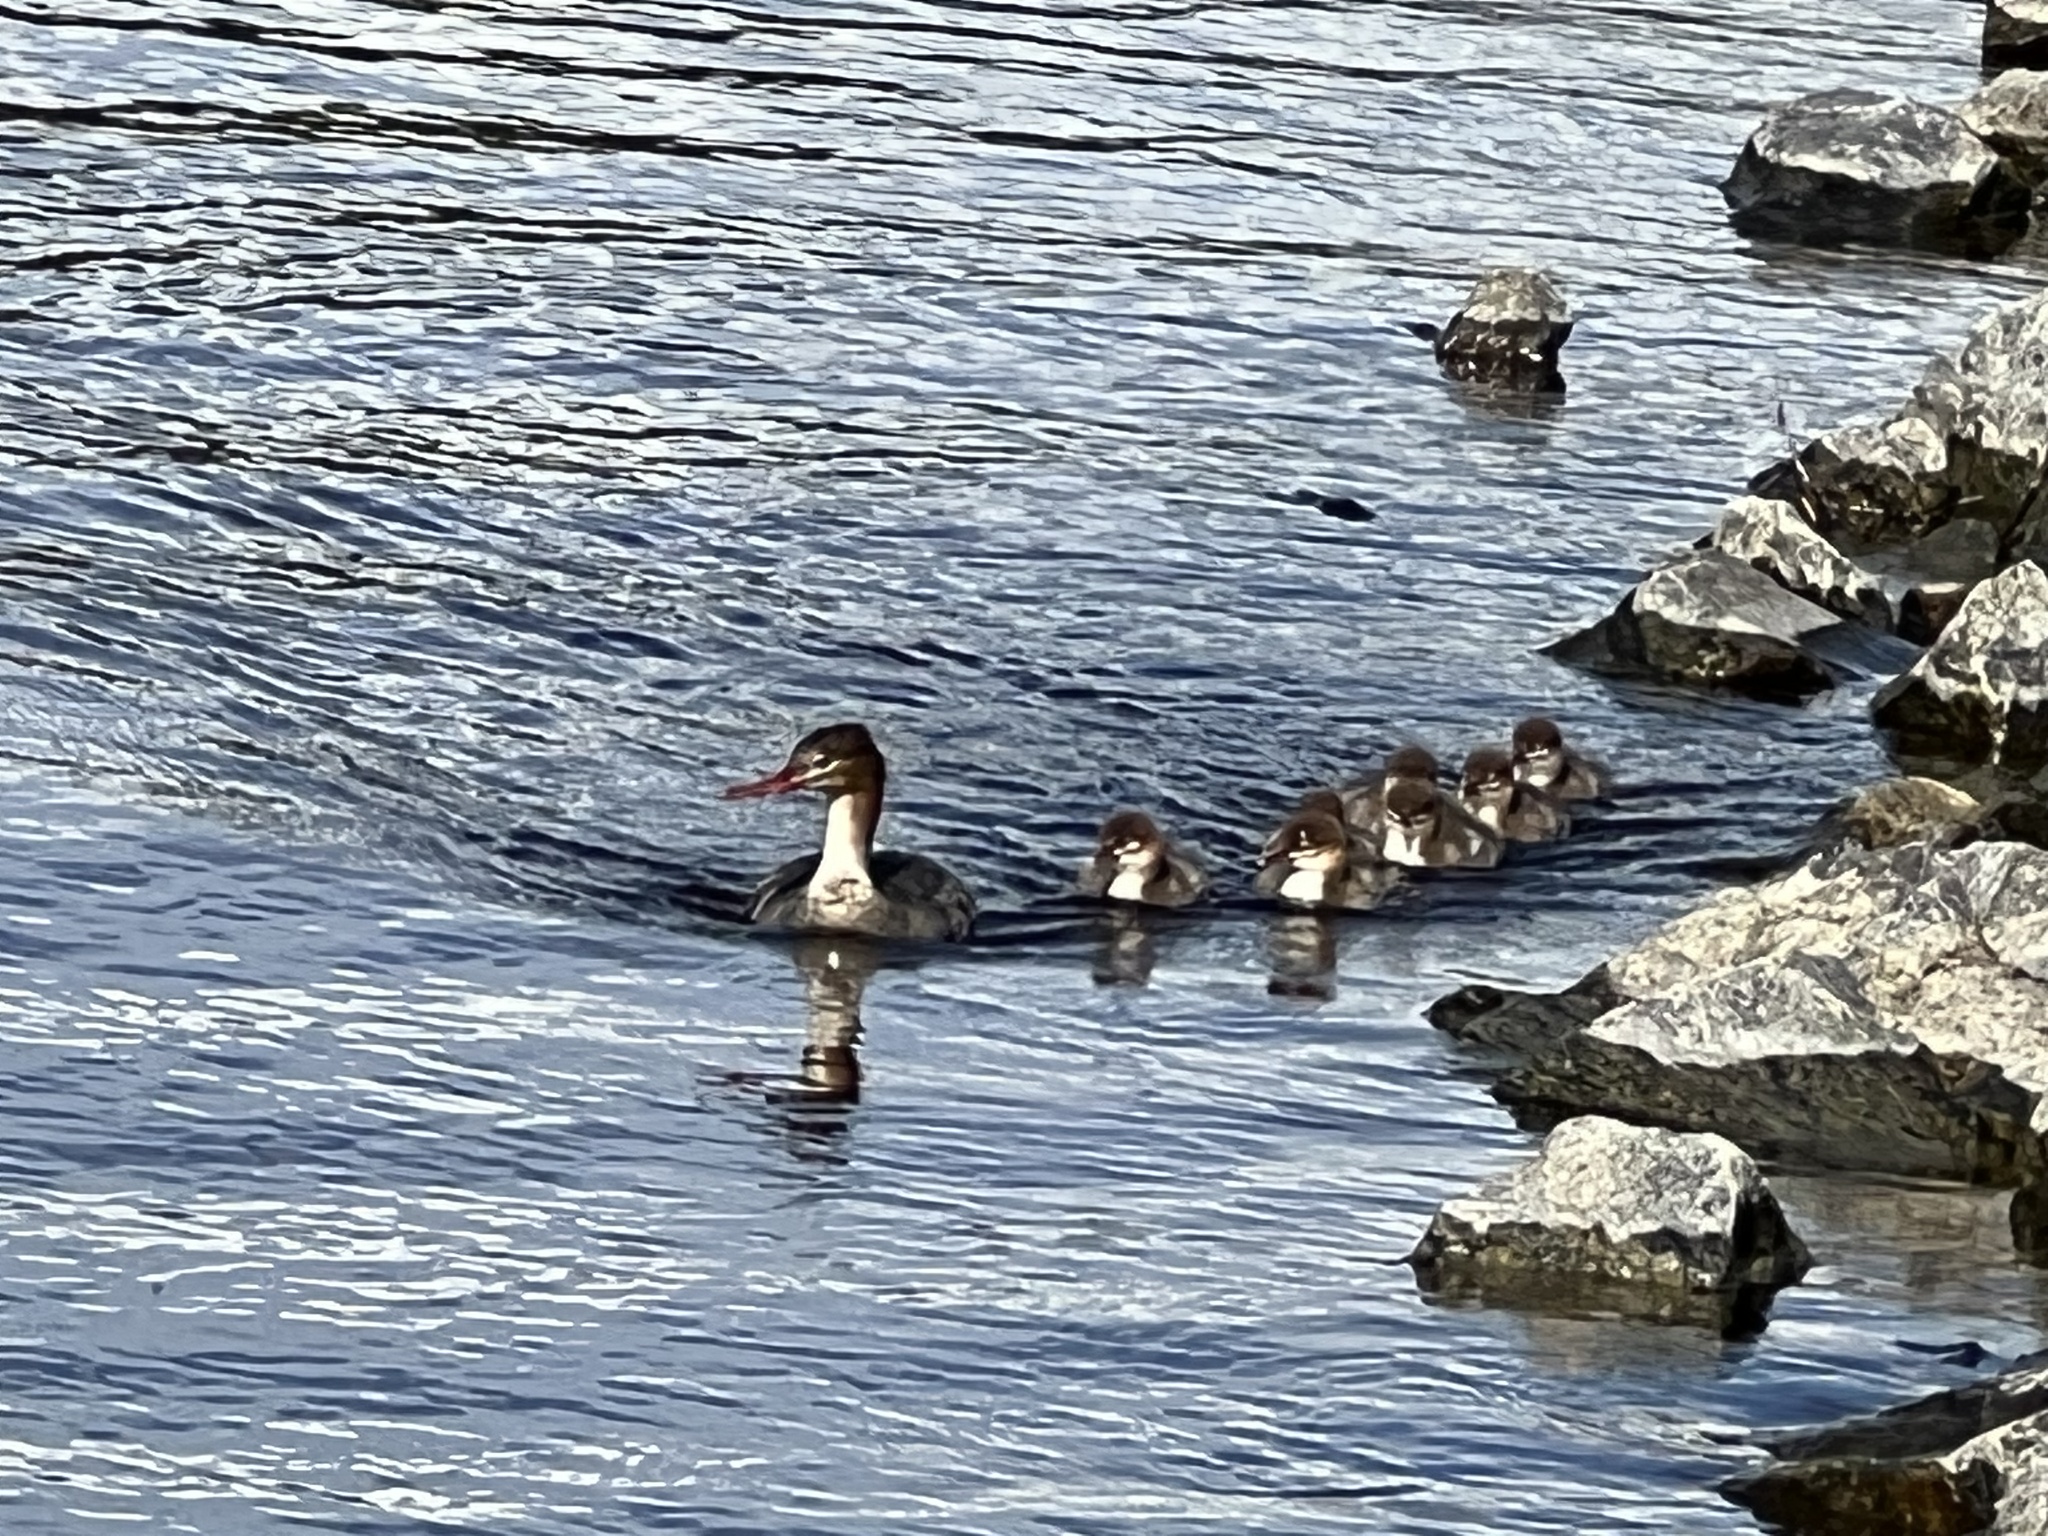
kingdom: Animalia
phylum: Chordata
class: Aves
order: Anseriformes
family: Anatidae
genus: Mergus
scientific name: Mergus serrator
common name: Red-breasted merganser
